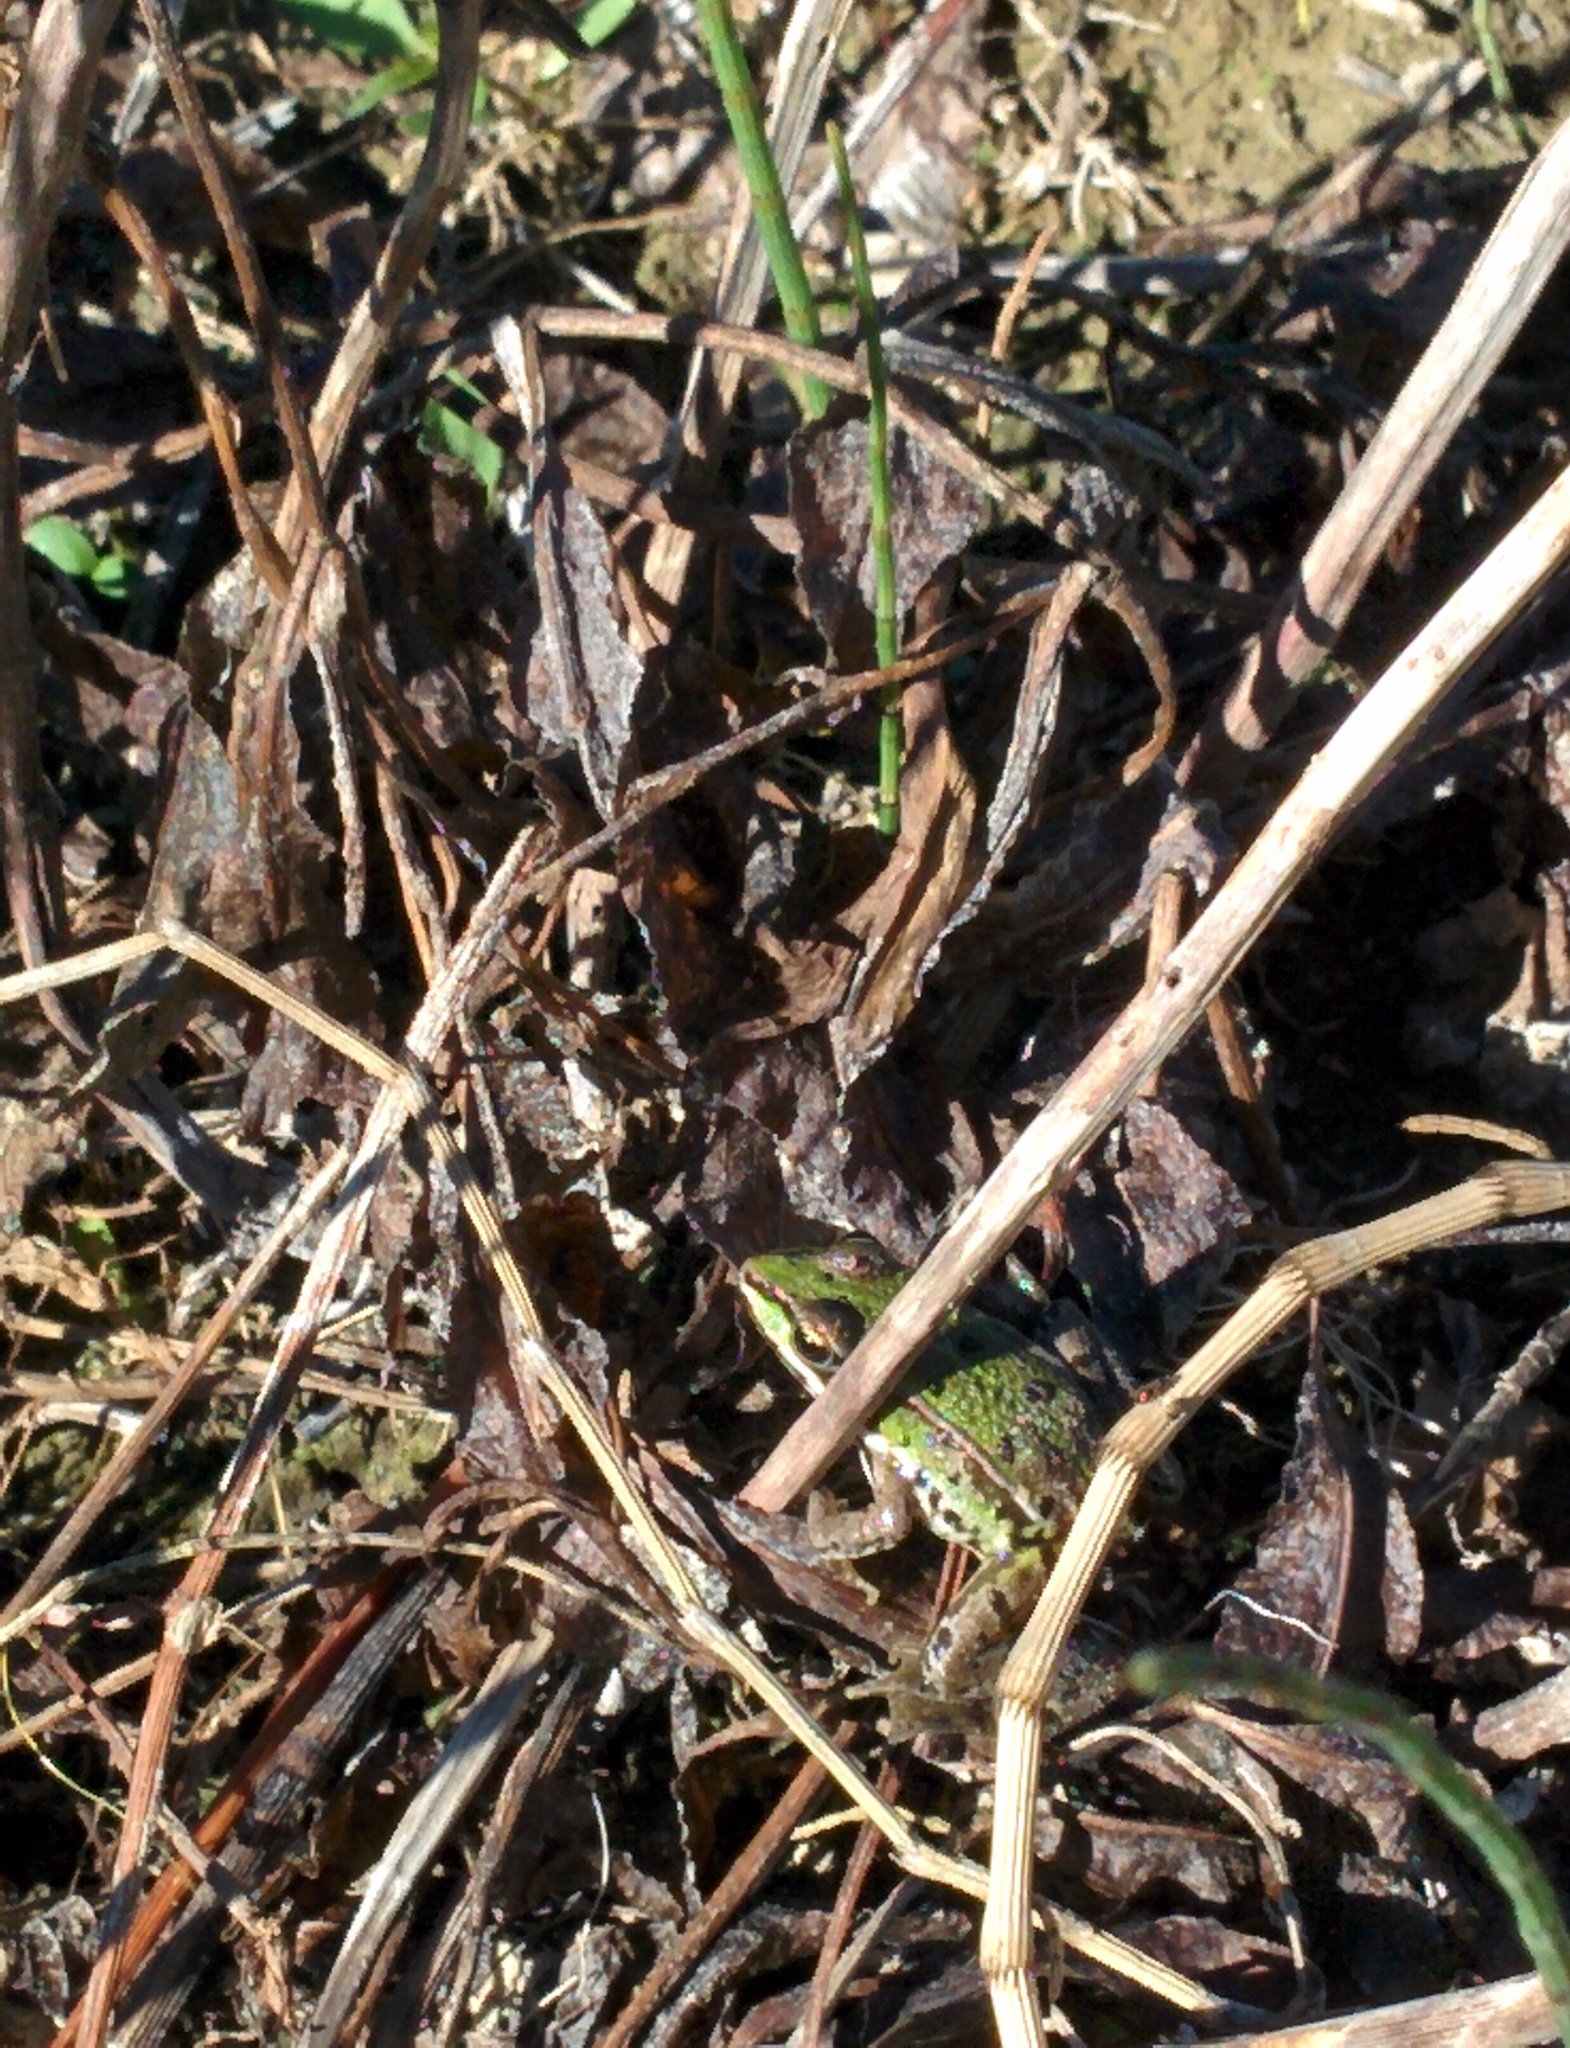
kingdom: Animalia
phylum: Chordata
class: Amphibia
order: Anura
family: Ranidae
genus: Pelophylax
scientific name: Pelophylax
